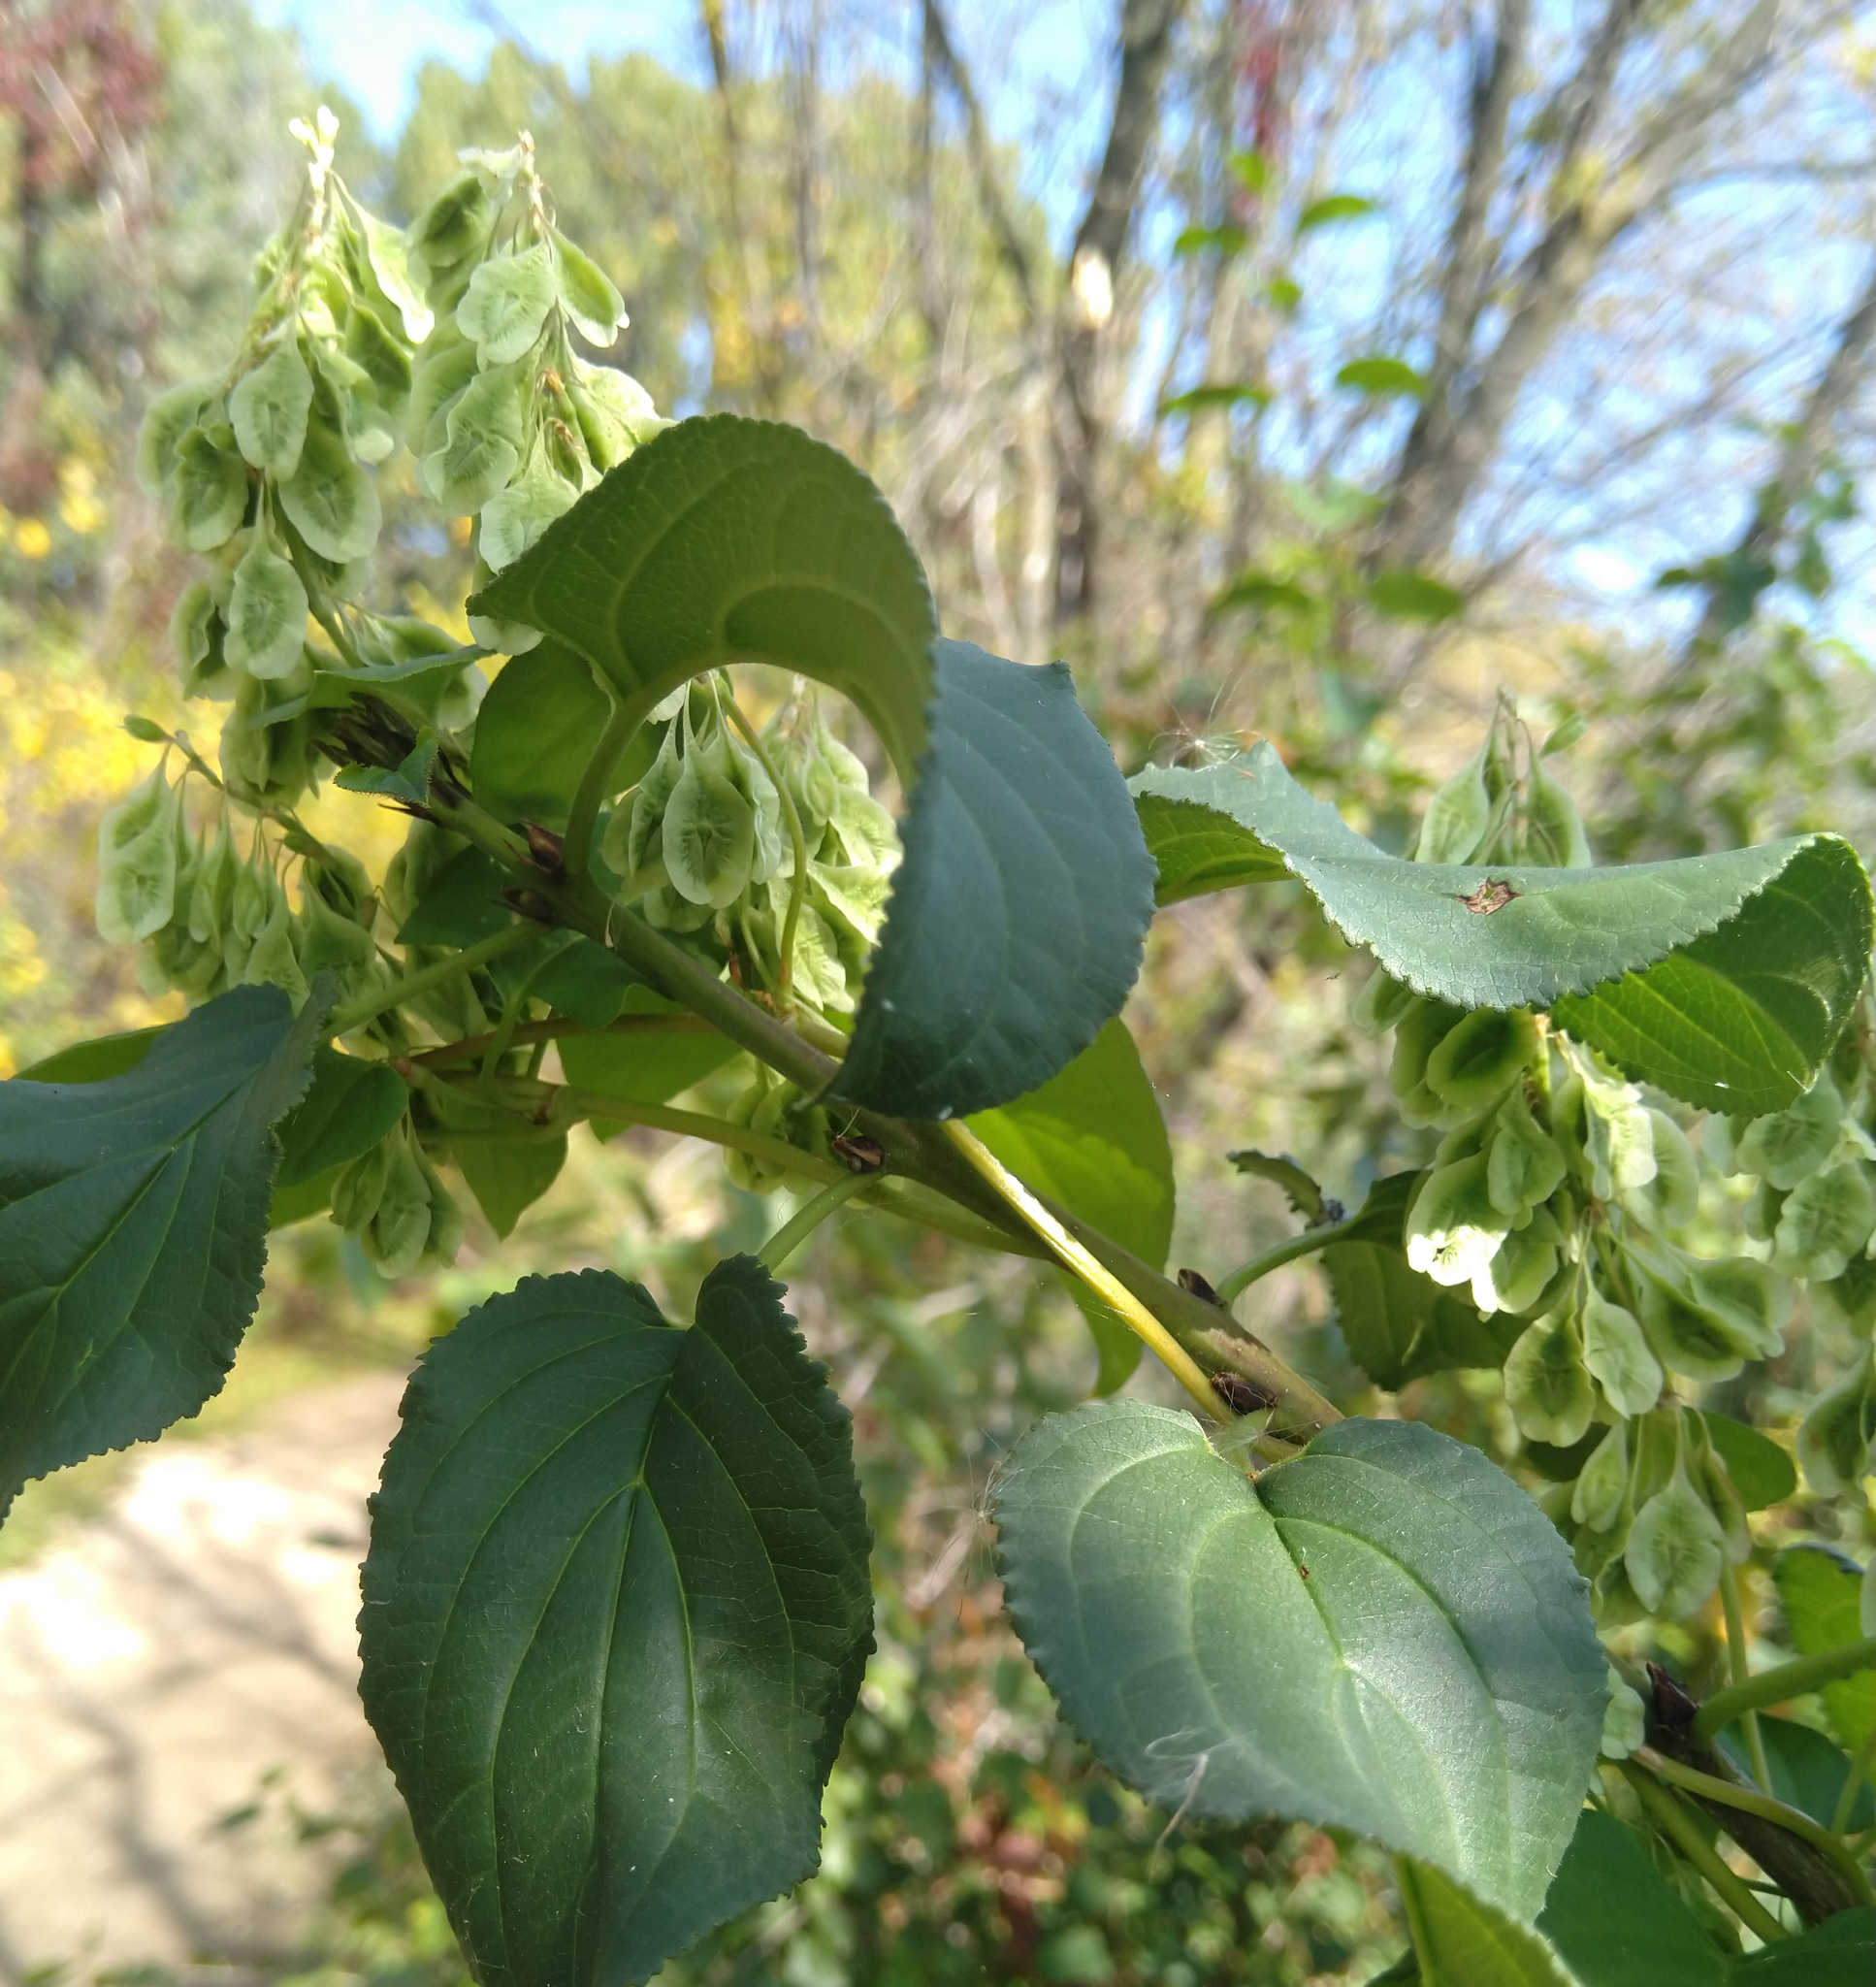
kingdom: Plantae
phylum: Tracheophyta
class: Magnoliopsida
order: Caryophyllales
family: Polygonaceae
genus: Fallopia
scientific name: Fallopia scandens
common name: Climbing false buckwheat
